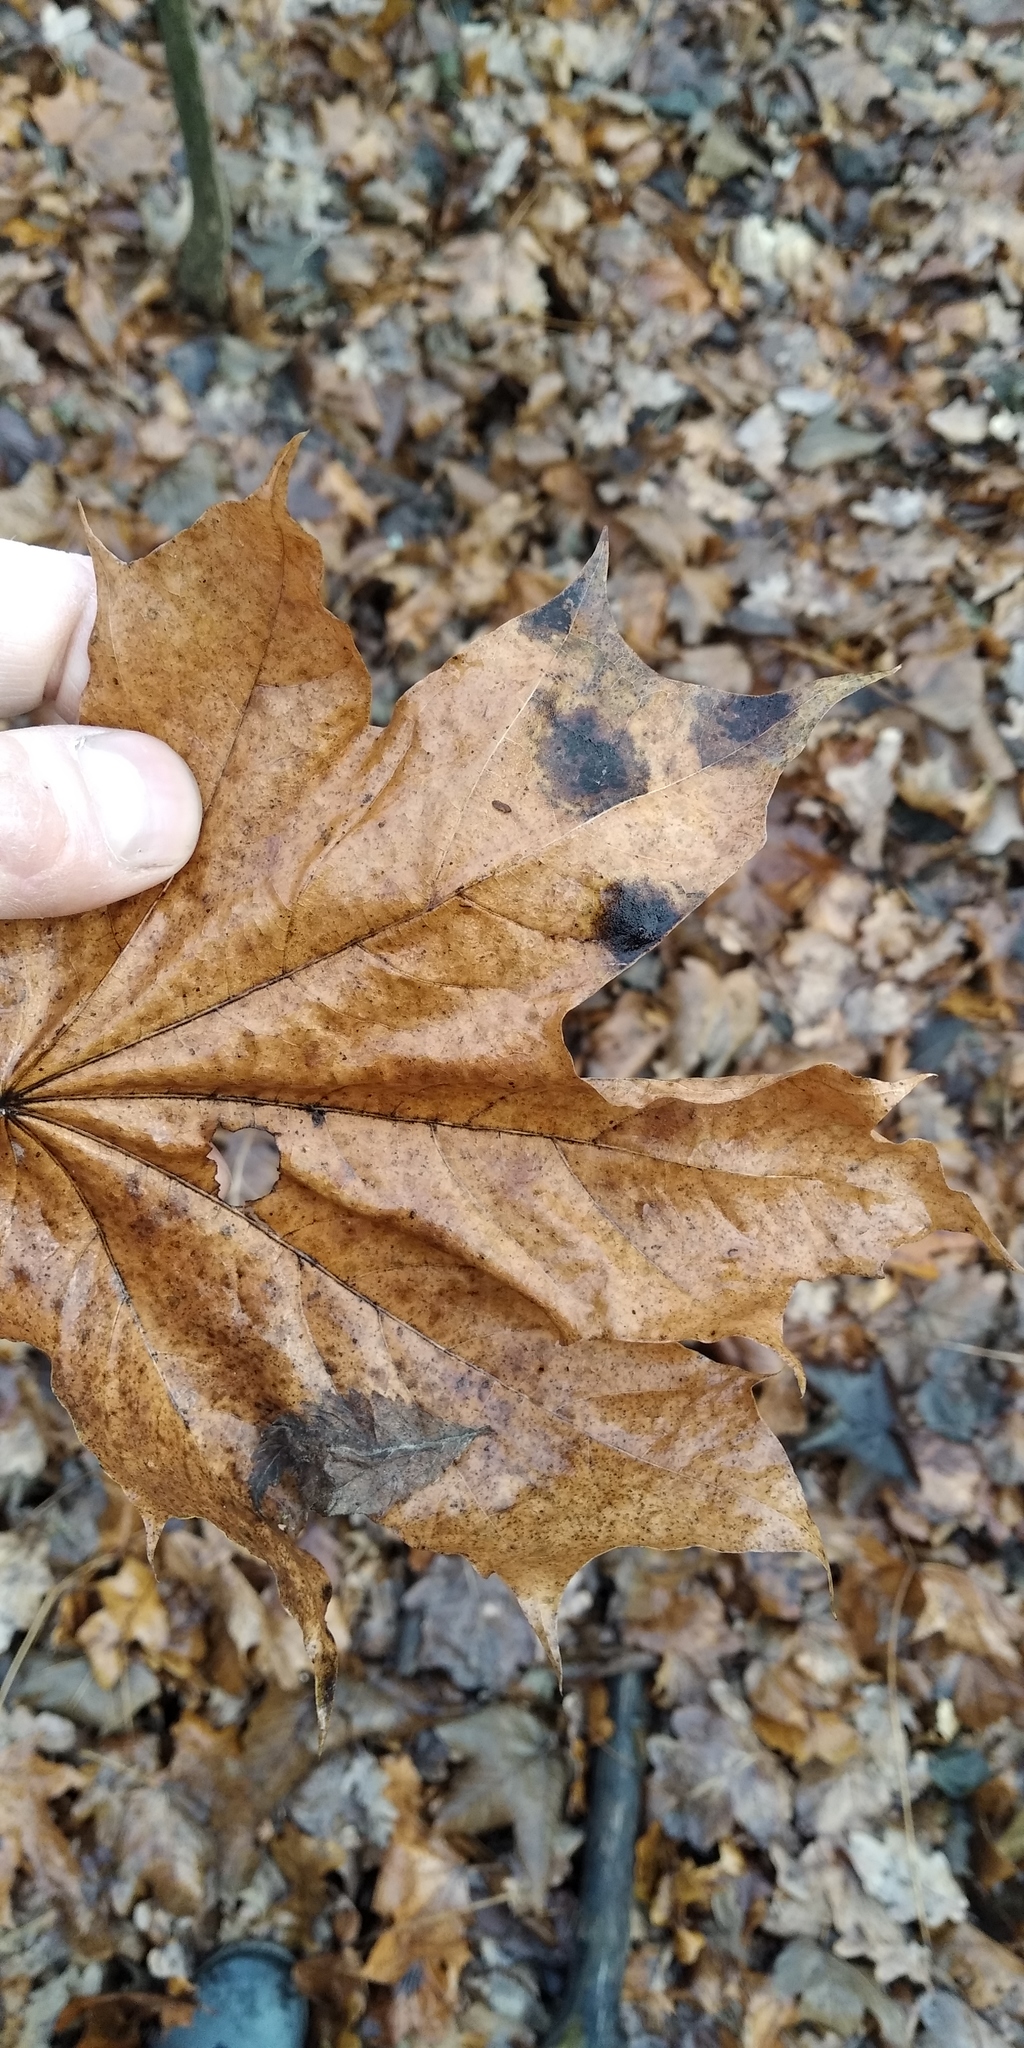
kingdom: Fungi
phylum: Ascomycota
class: Leotiomycetes
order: Rhytismatales
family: Rhytismataceae
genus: Rhytisma
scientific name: Rhytisma acerinum
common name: European tar spot
